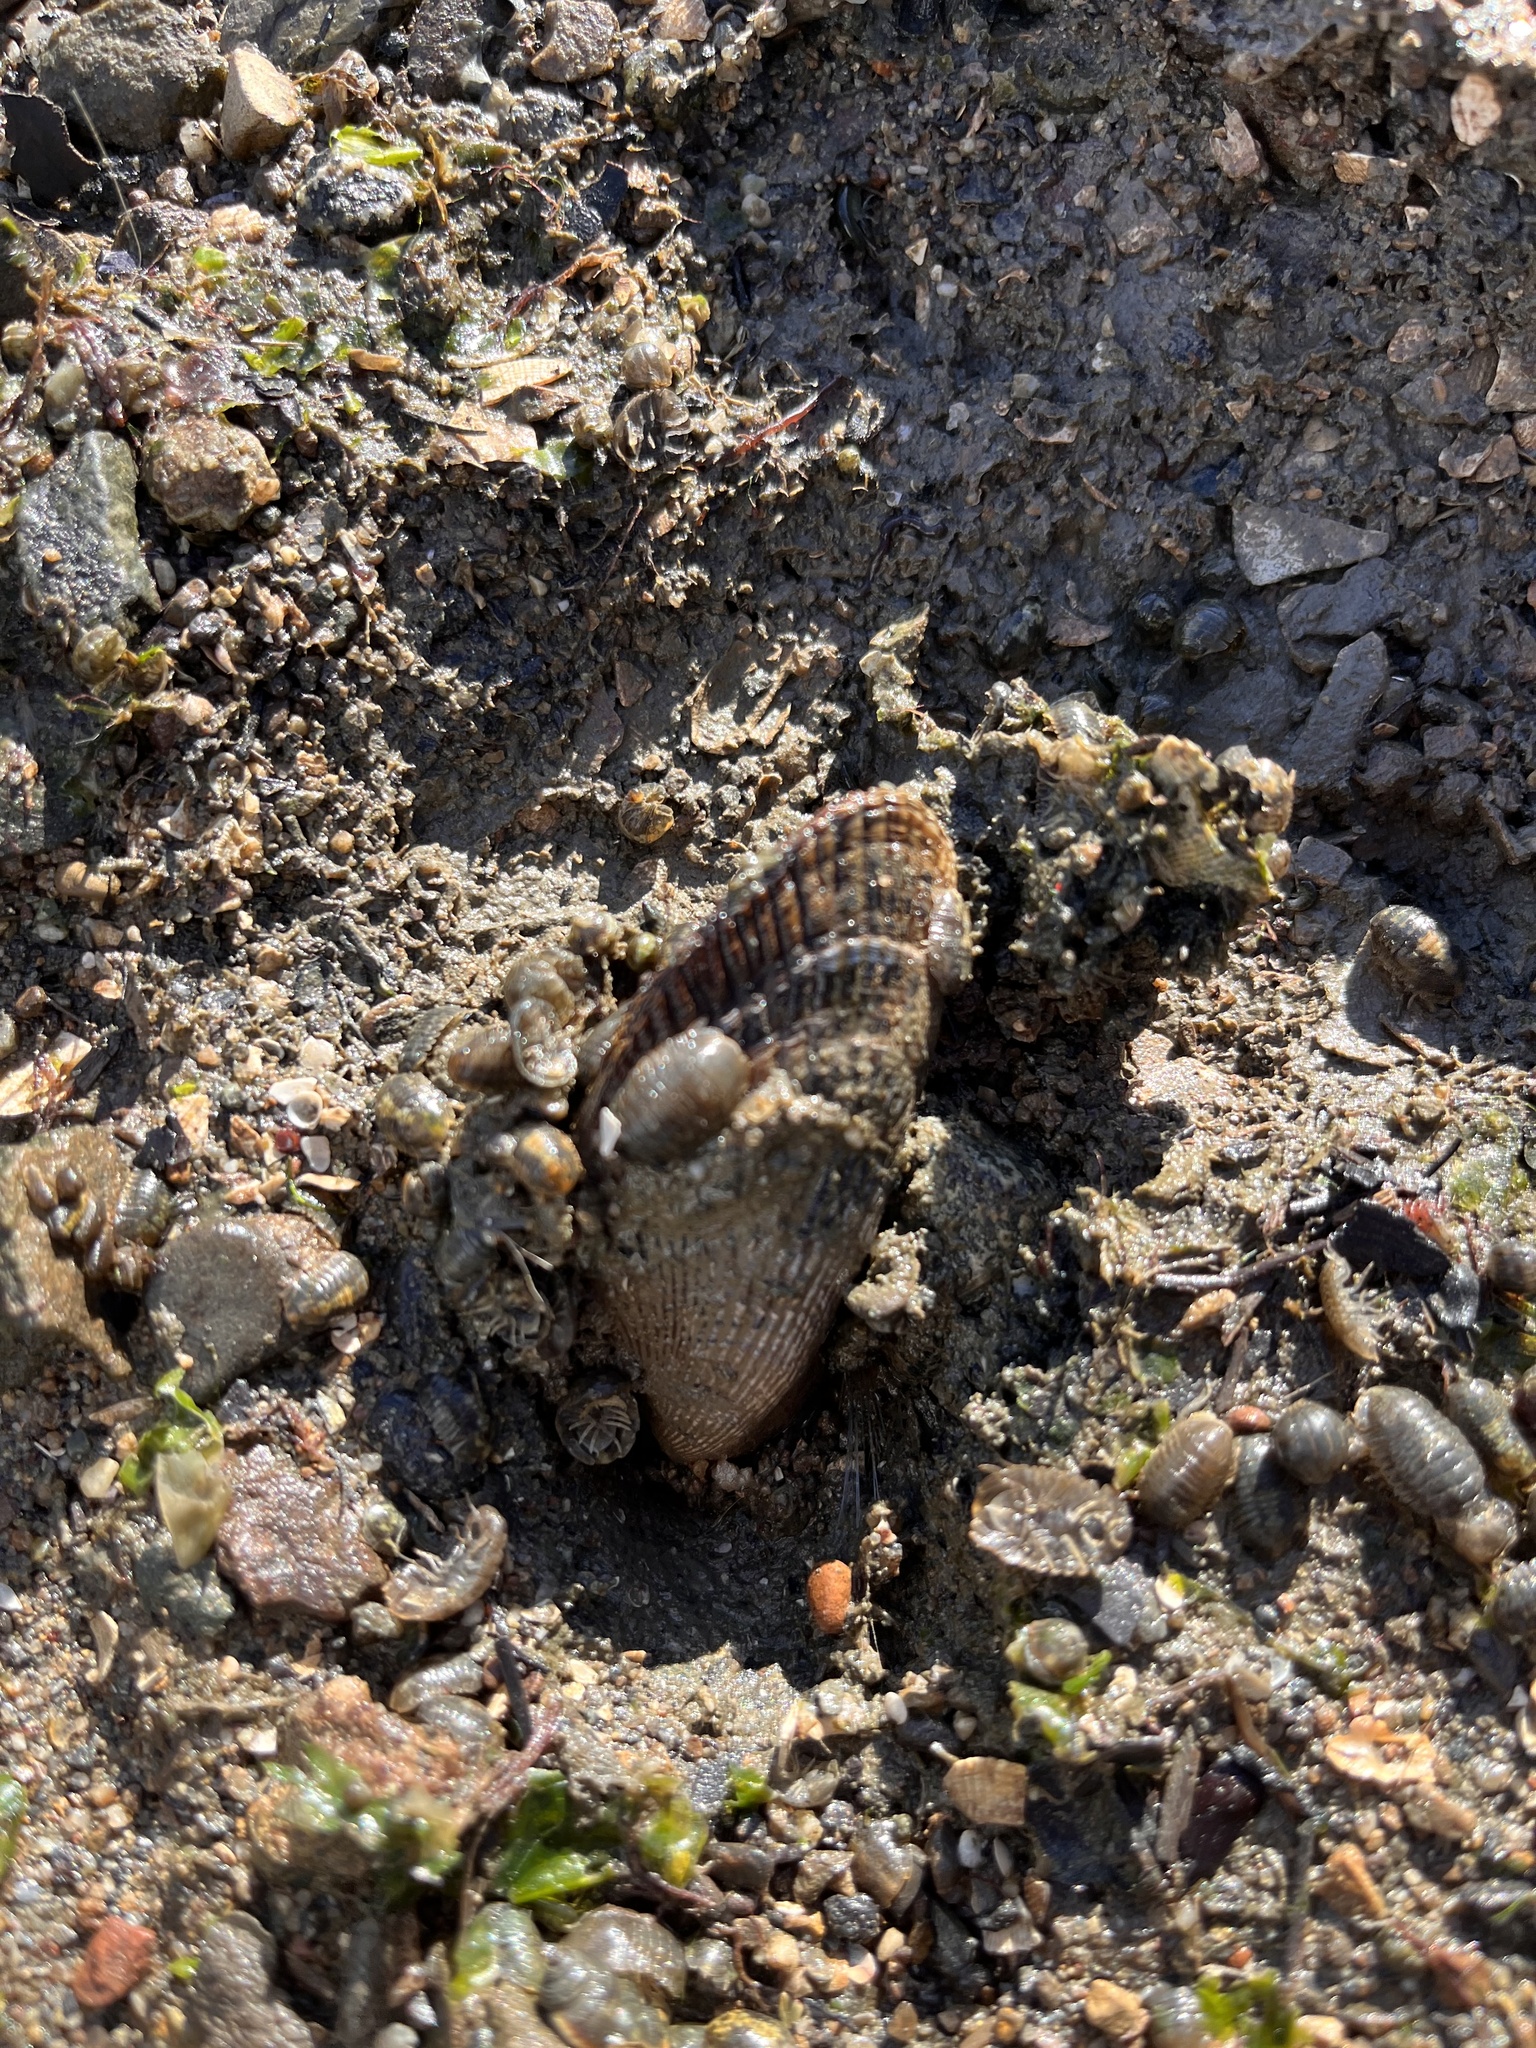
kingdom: Animalia
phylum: Mollusca
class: Bivalvia
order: Mytilida
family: Mytilidae
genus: Geukensia
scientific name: Geukensia demissa
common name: Ribbed mussel
